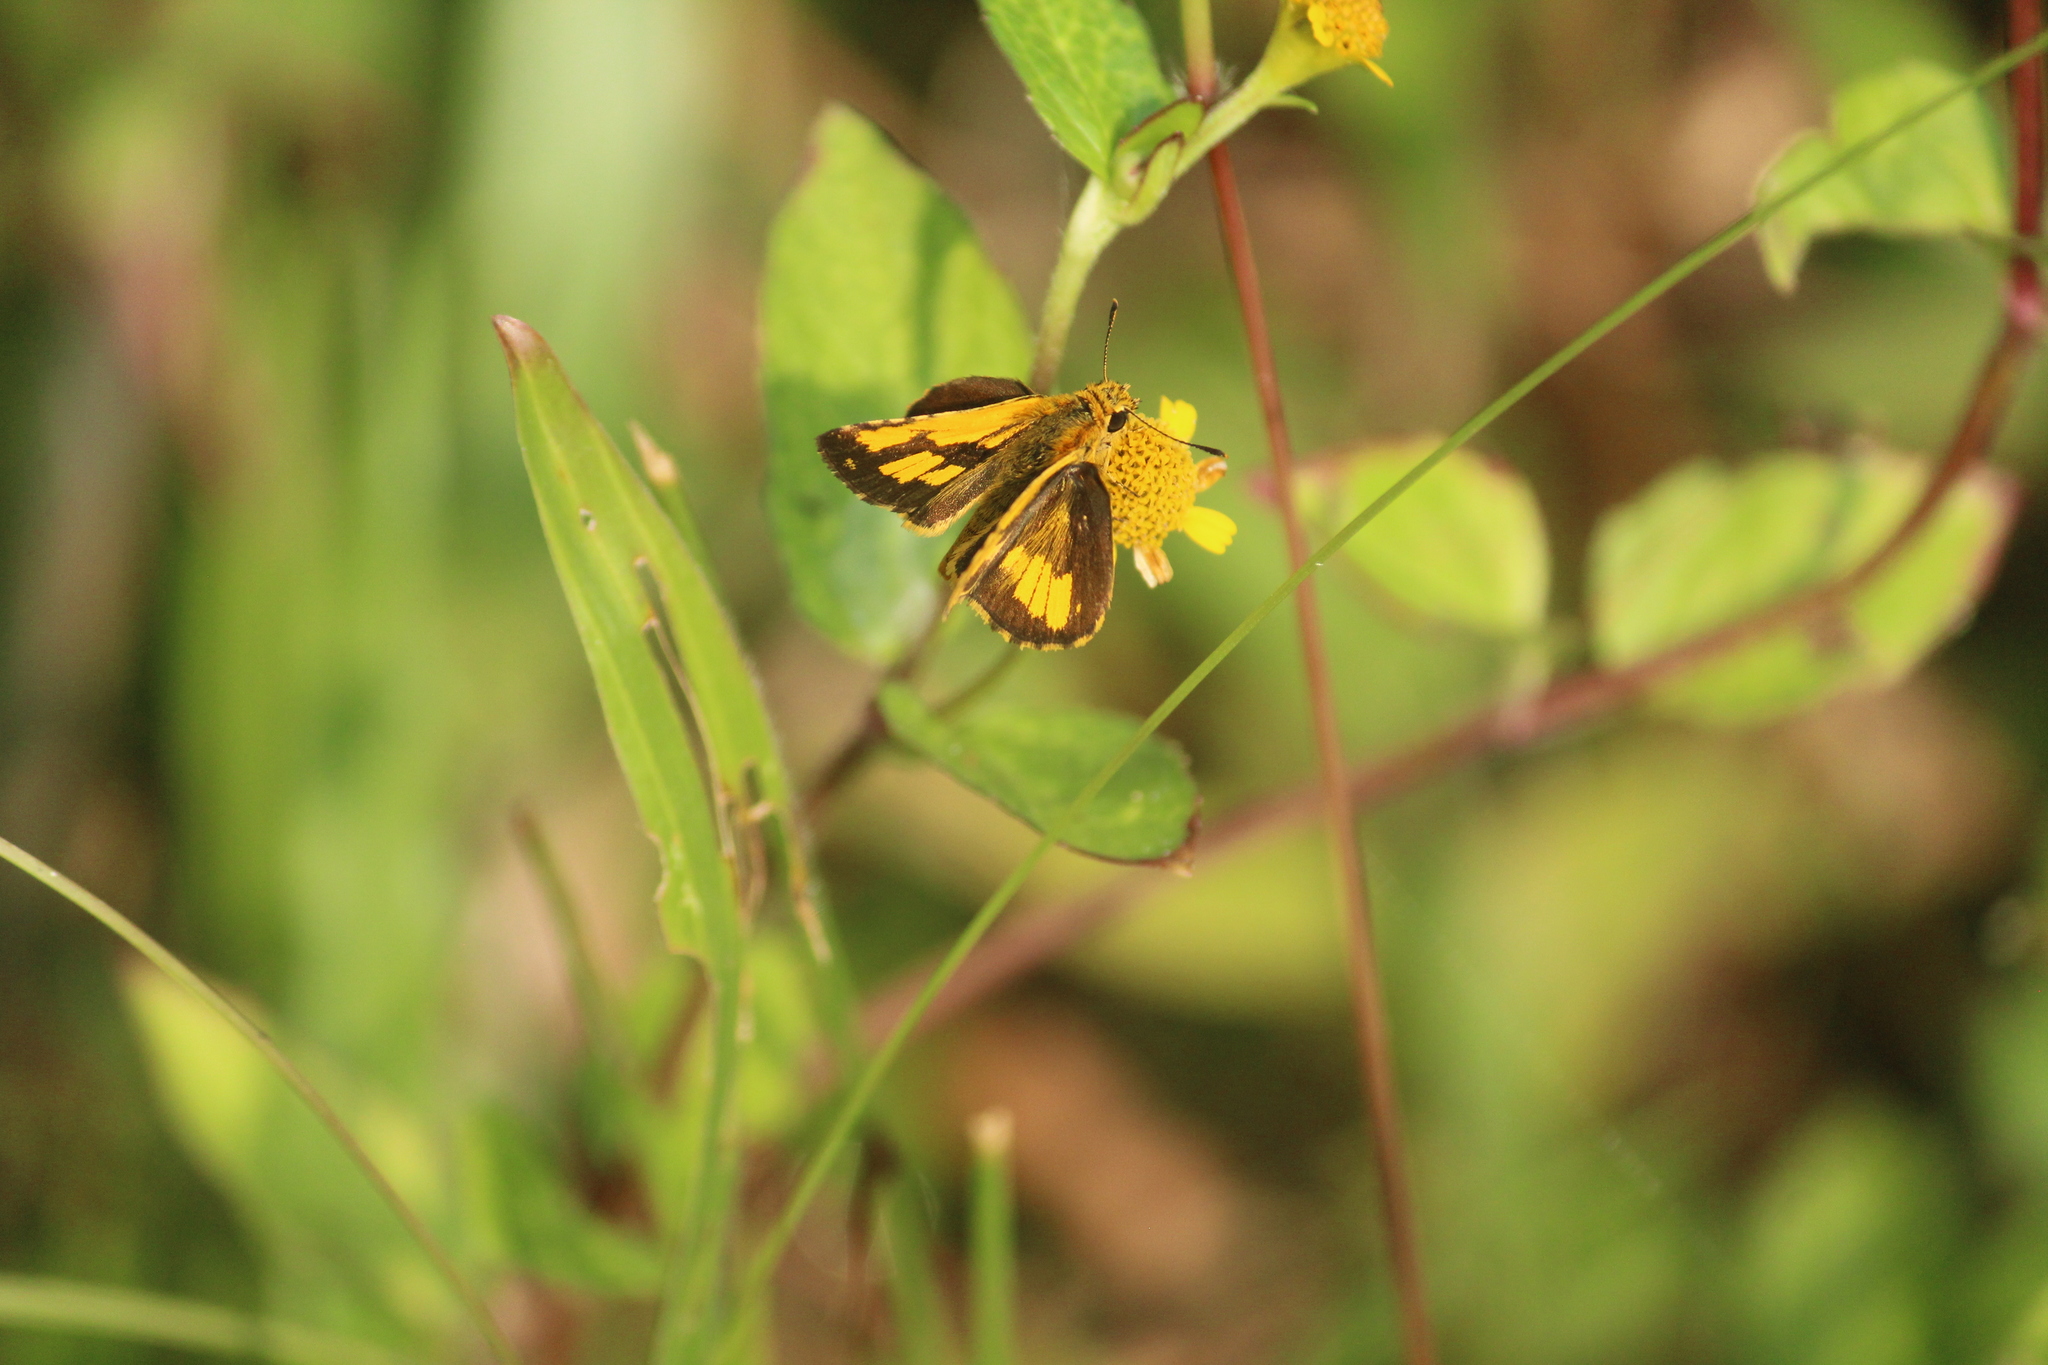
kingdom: Animalia
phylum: Arthropoda
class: Insecta
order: Lepidoptera
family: Hesperiidae
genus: Ampittia
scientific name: Ampittia dioscorides
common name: Common bush hopper
